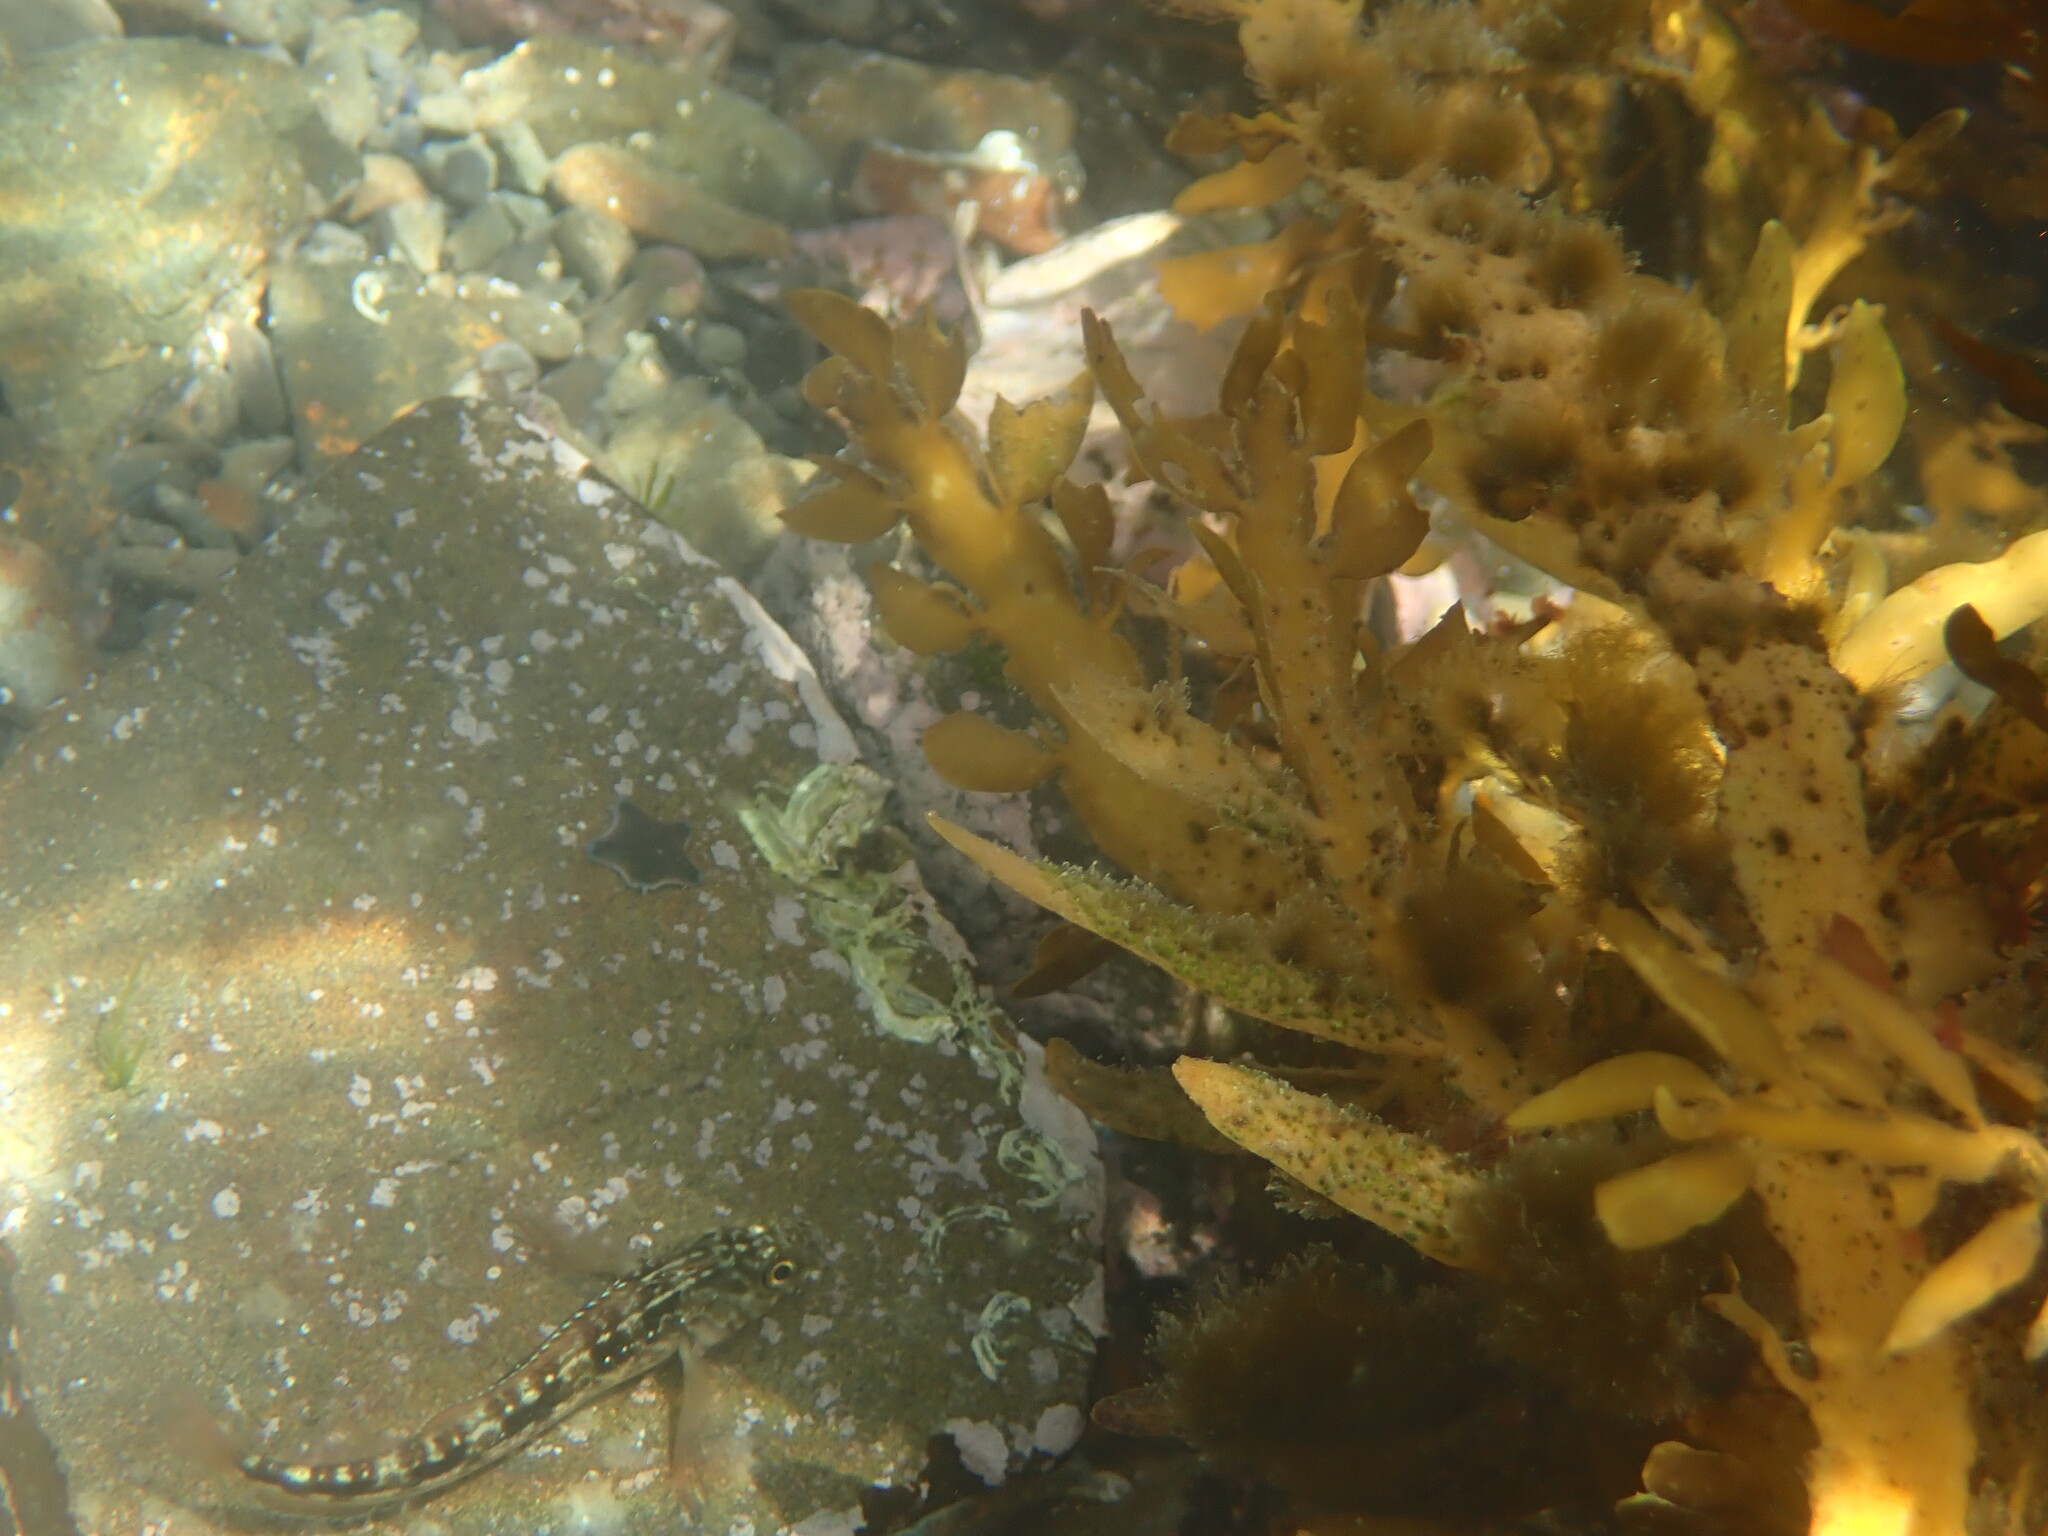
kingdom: Animalia
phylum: Chordata
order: Perciformes
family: Tripterygiidae
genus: Forsterygion
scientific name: Forsterygion lapillum
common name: Common triplefin
